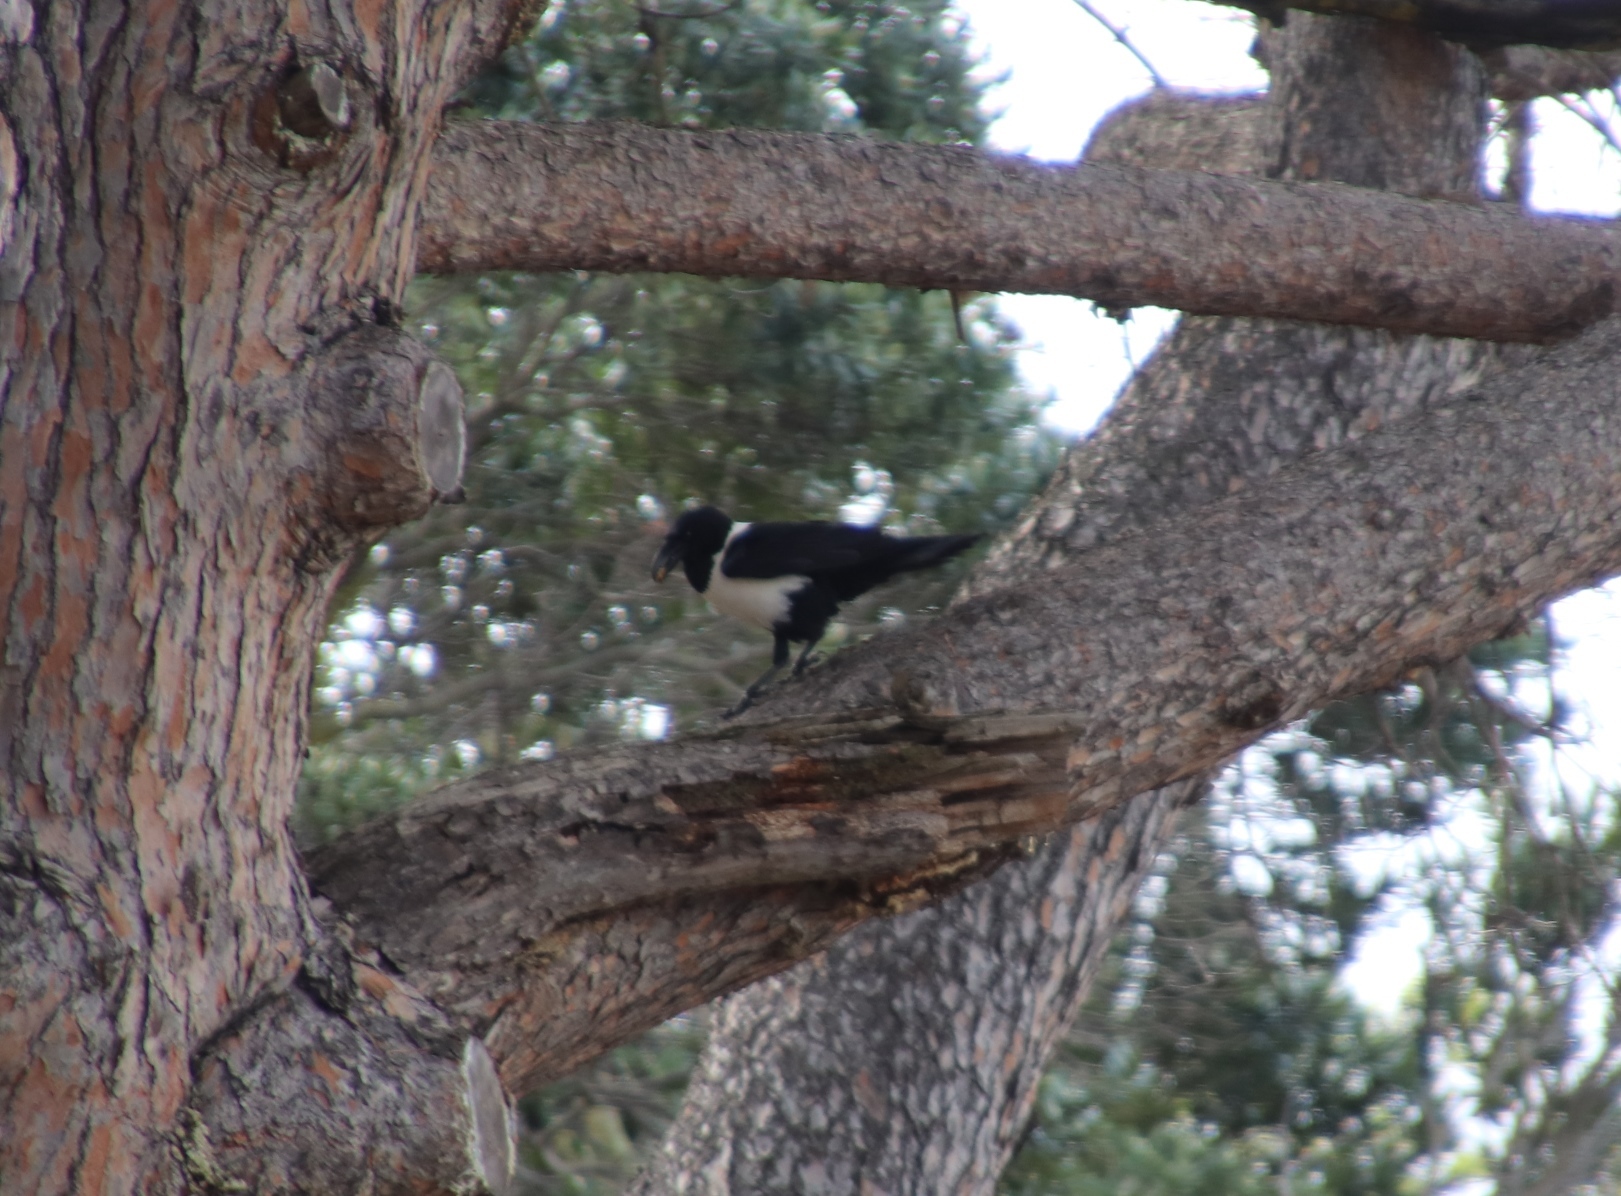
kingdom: Animalia
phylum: Chordata
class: Aves
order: Passeriformes
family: Corvidae
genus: Corvus
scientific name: Corvus albus
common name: Pied crow
